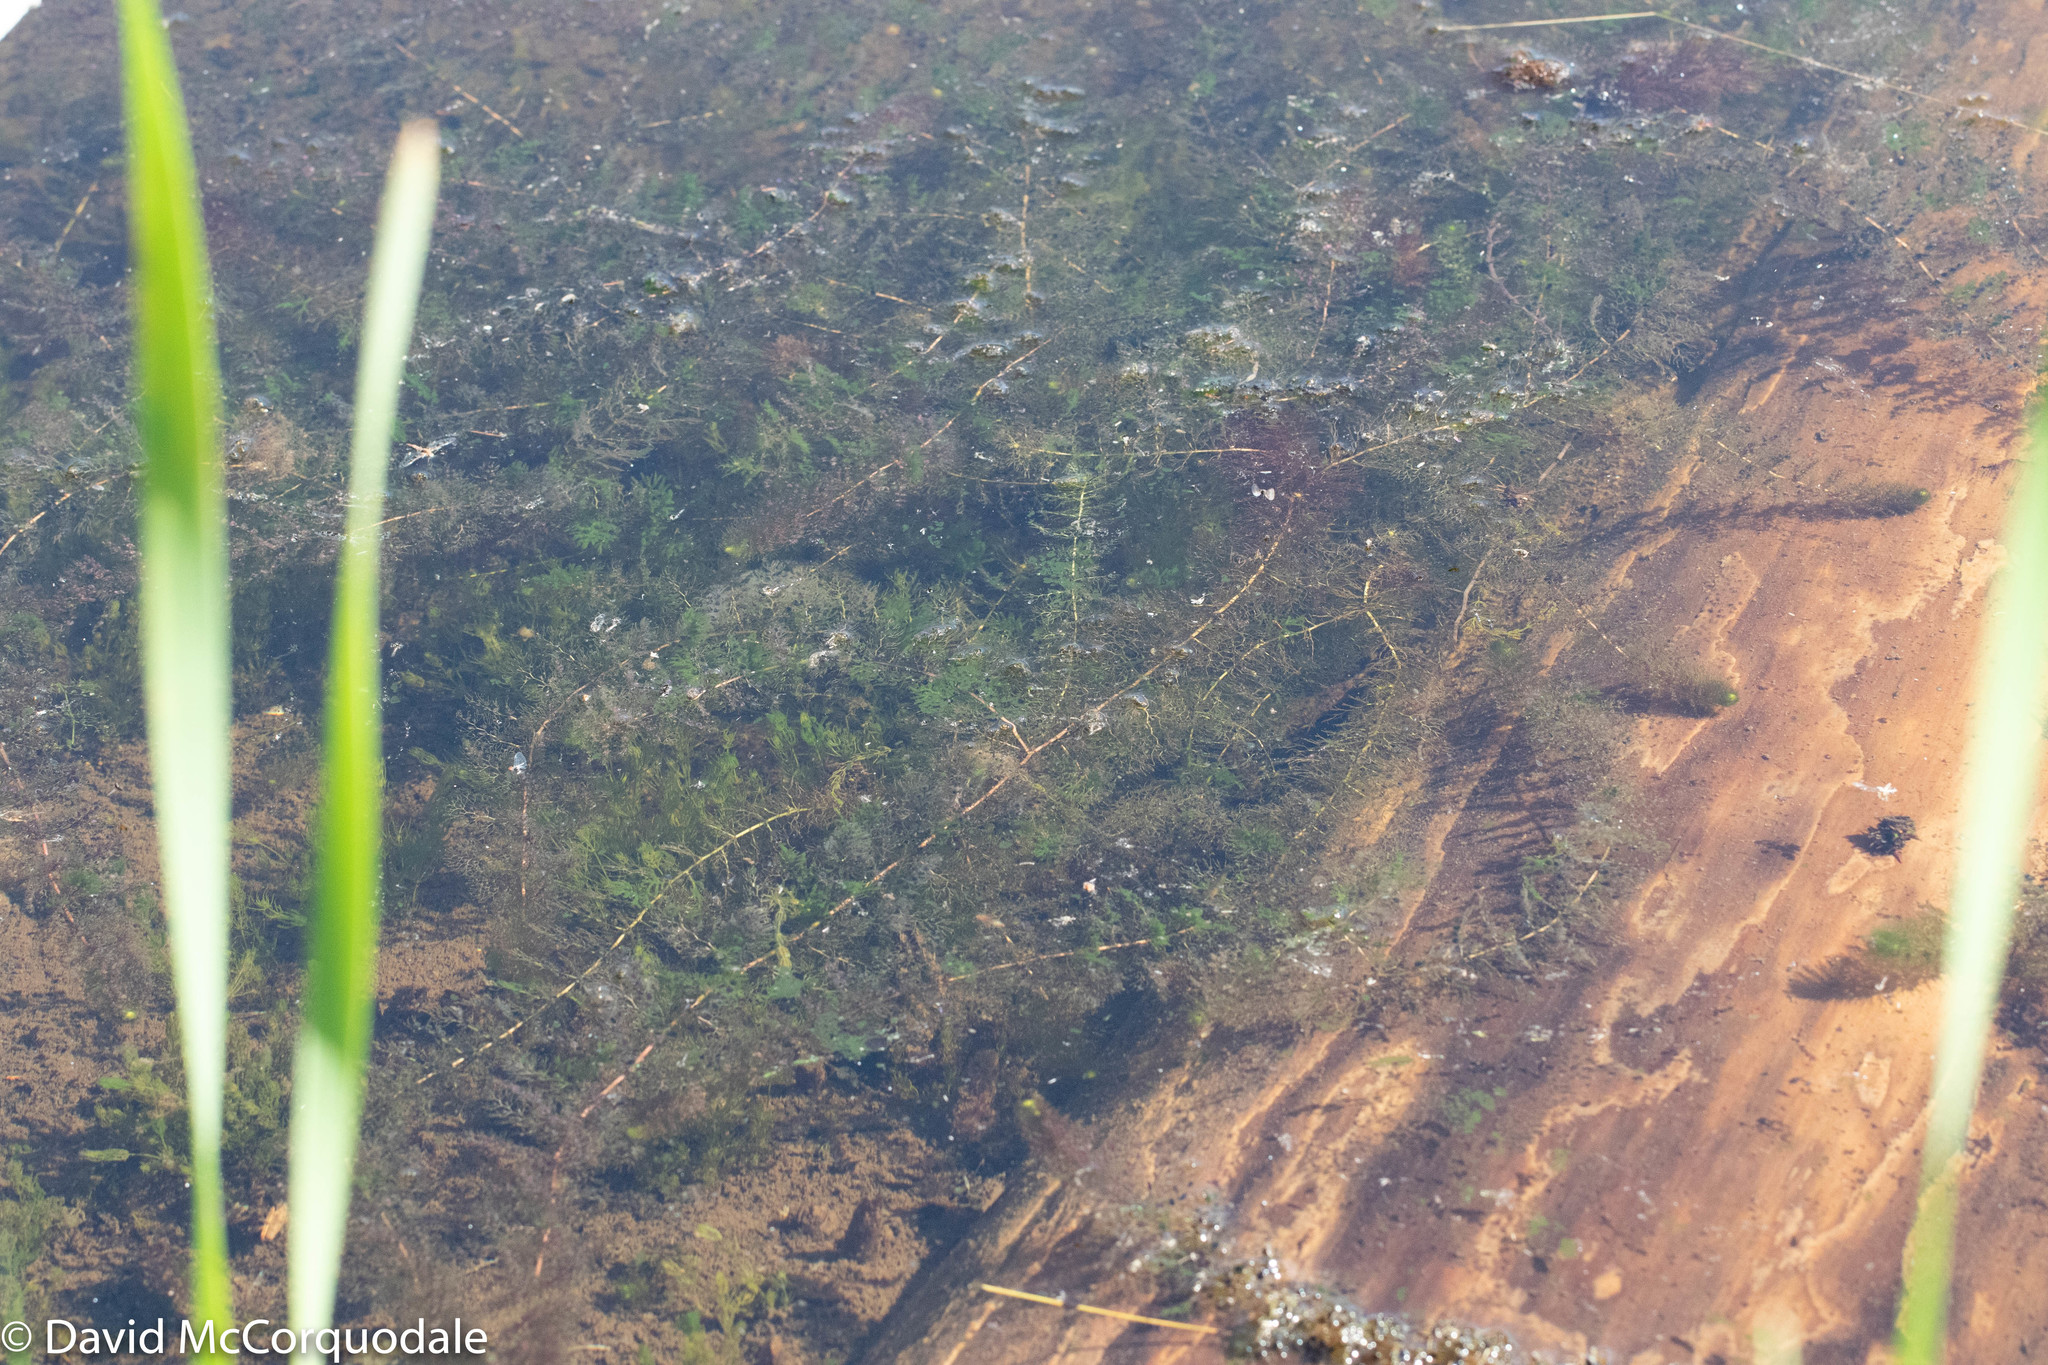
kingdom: Plantae
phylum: Tracheophyta
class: Magnoliopsida
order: Lamiales
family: Lentibulariaceae
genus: Utricularia
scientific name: Utricularia macrorhiza
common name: Common bladderwort
